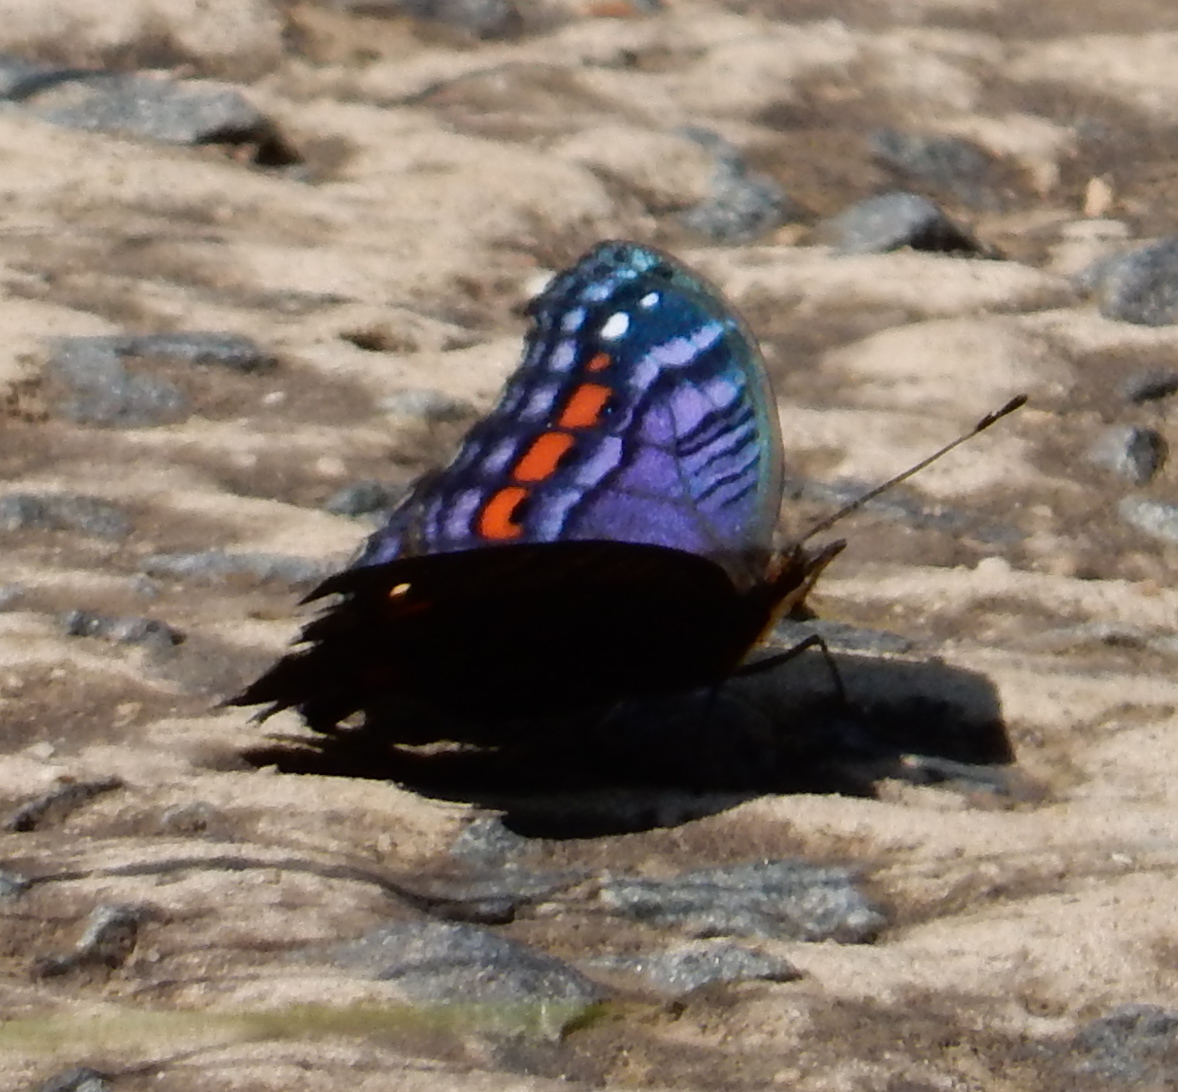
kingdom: Animalia
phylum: Arthropoda
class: Insecta
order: Lepidoptera
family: Nymphalidae
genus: Precis
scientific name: Precis octavia
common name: Gaudy commodore
